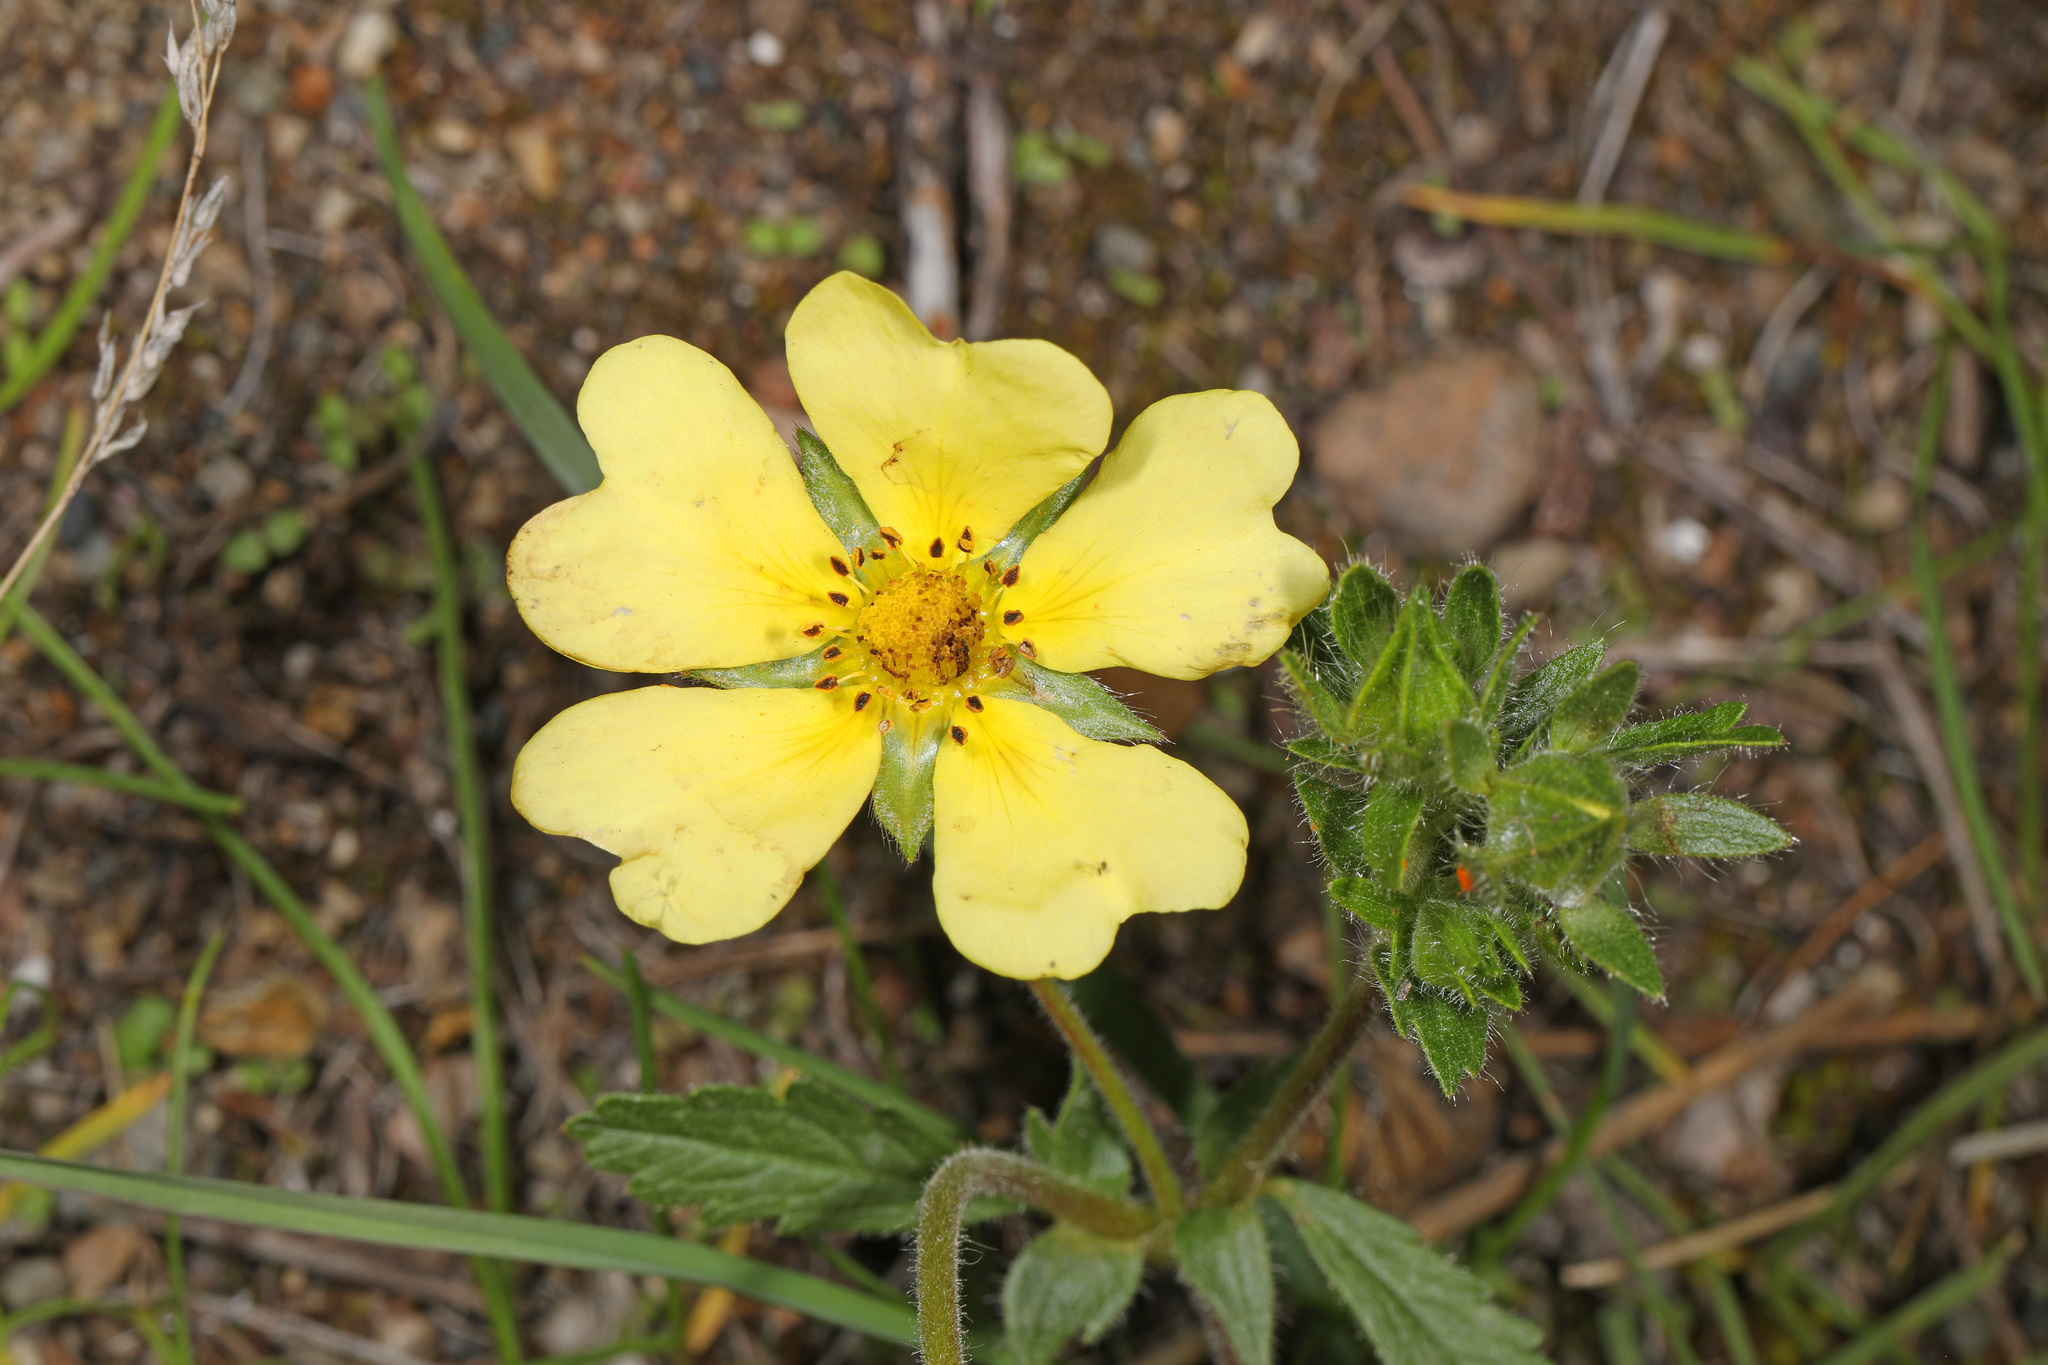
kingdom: Plantae
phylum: Tracheophyta
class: Magnoliopsida
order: Rosales
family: Rosaceae
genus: Potentilla
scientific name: Potentilla recta
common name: Sulphur cinquefoil
